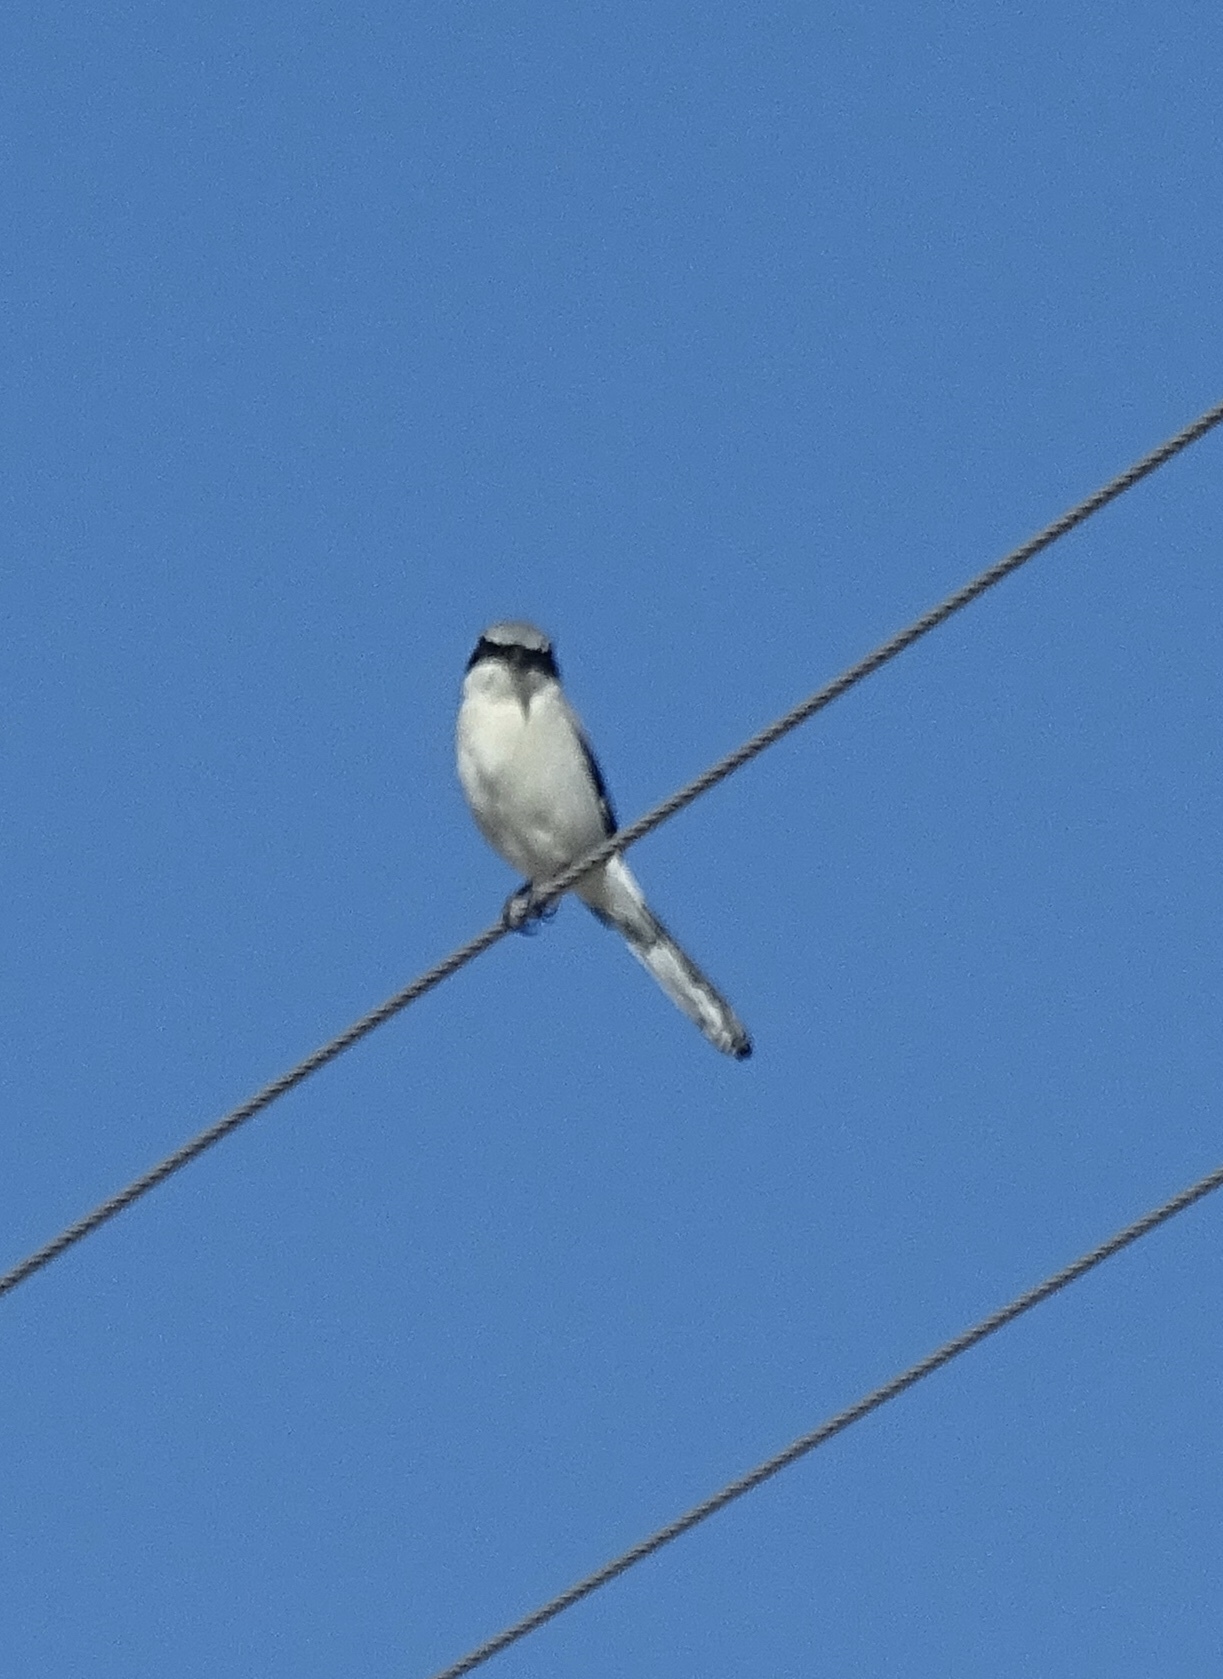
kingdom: Animalia
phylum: Chordata
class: Aves
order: Passeriformes
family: Laniidae
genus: Lanius
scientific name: Lanius ludovicianus
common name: Loggerhead shrike
